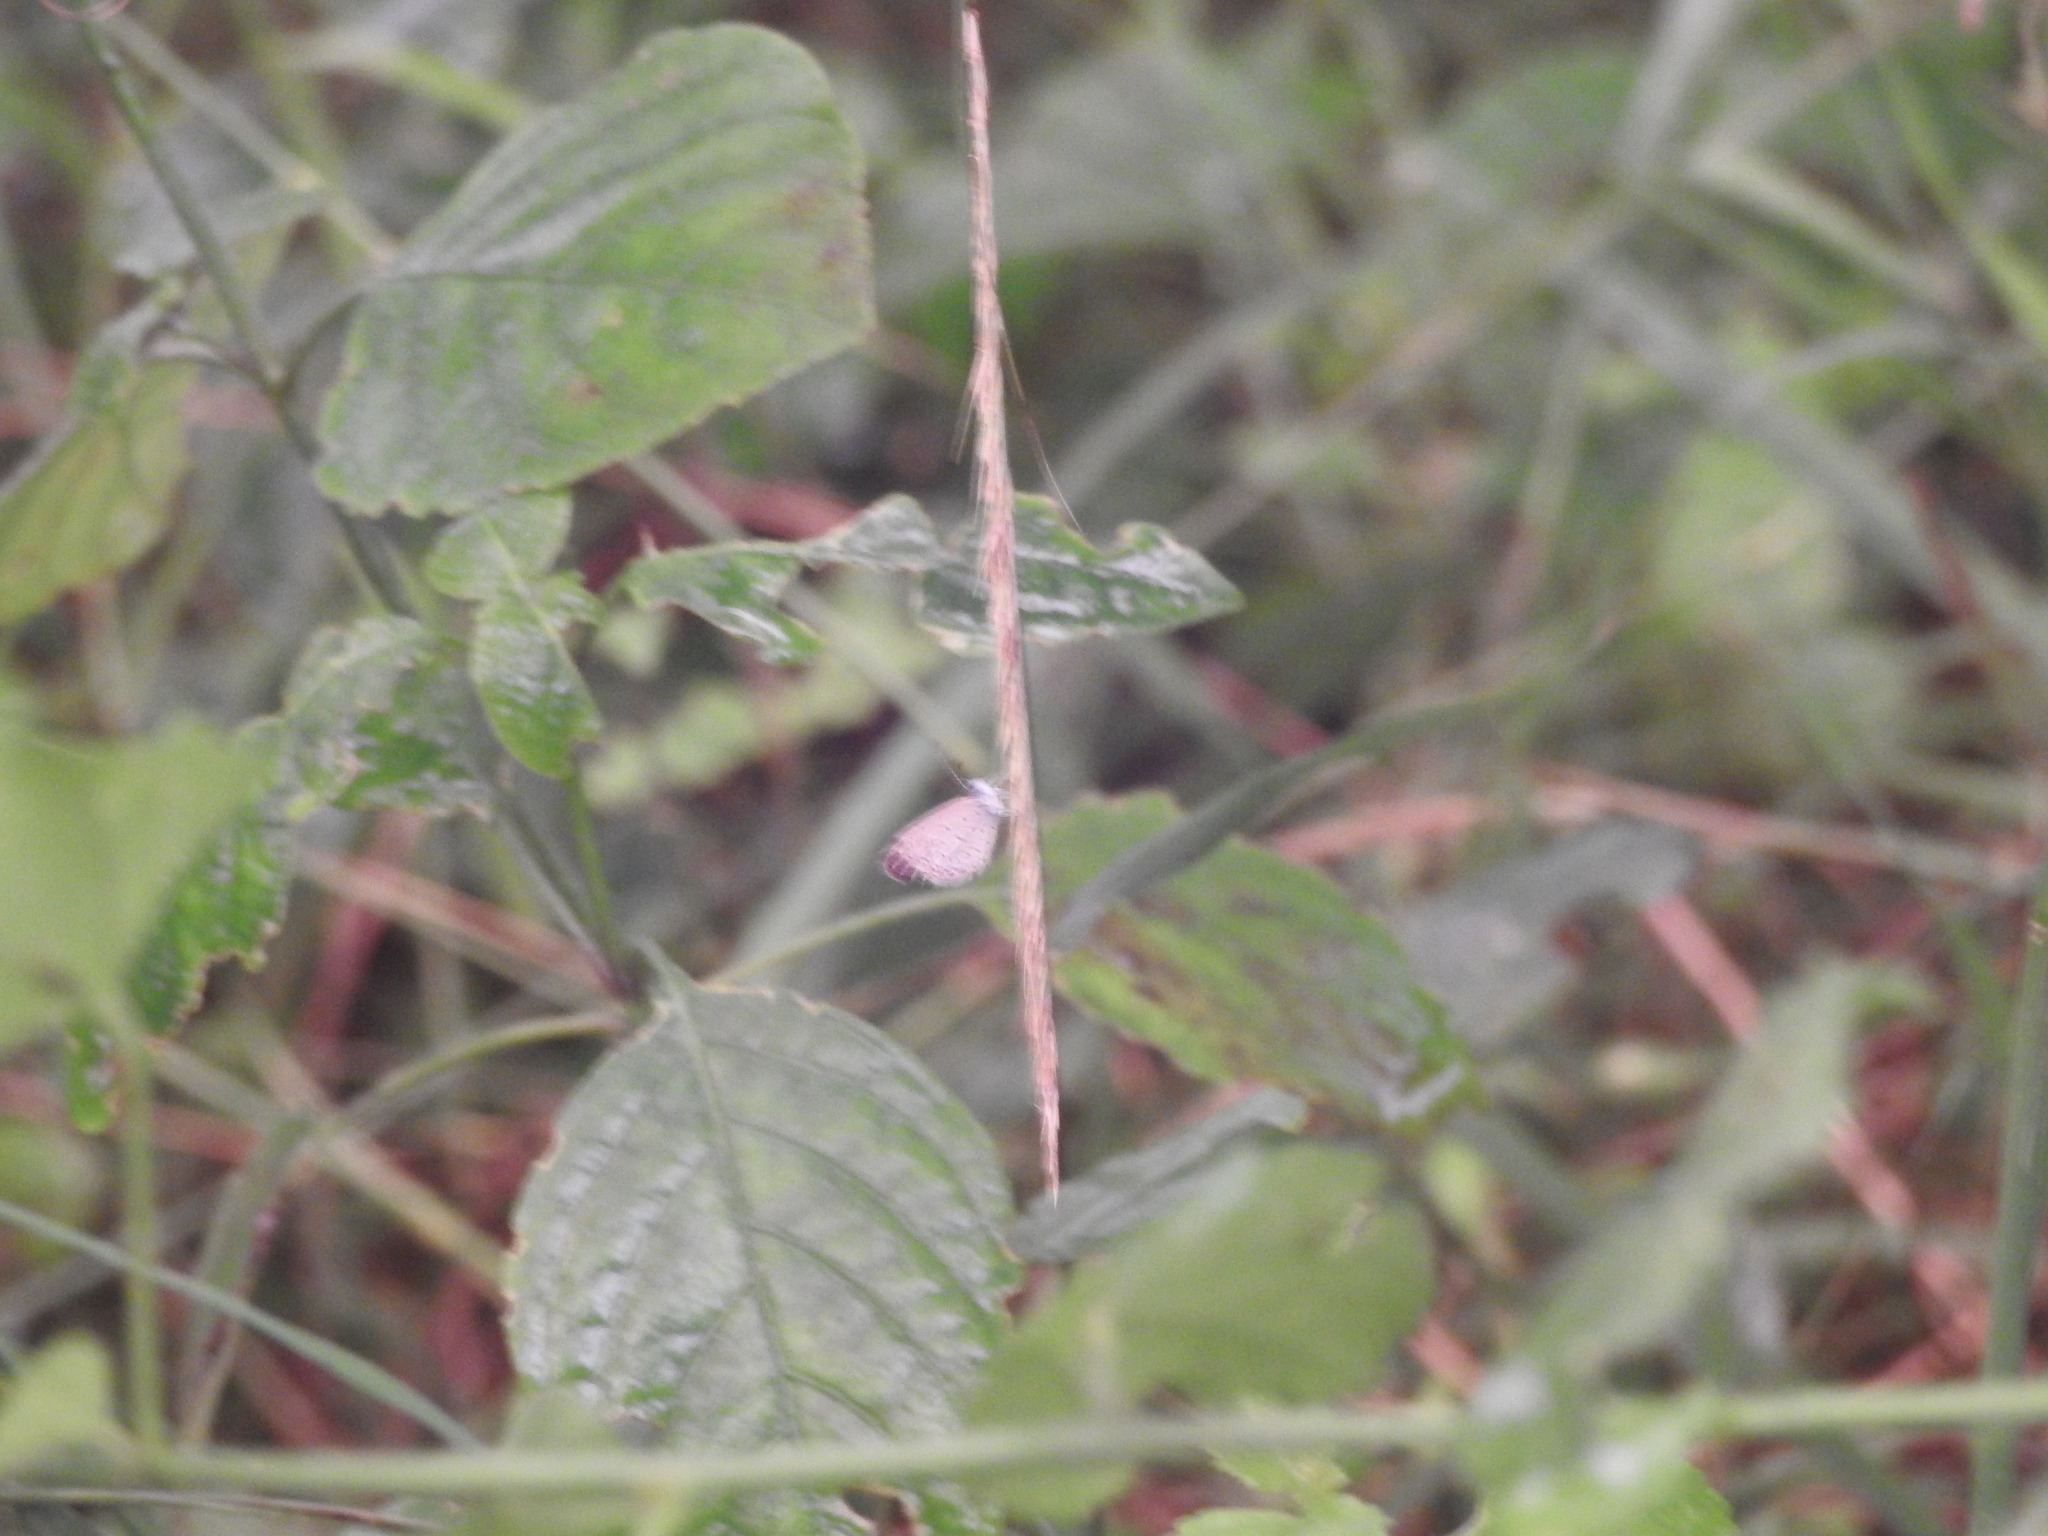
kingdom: Animalia
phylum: Arthropoda
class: Insecta
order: Lepidoptera
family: Lycaenidae
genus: Zizula
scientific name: Zizula hylax
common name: Gaika blue
